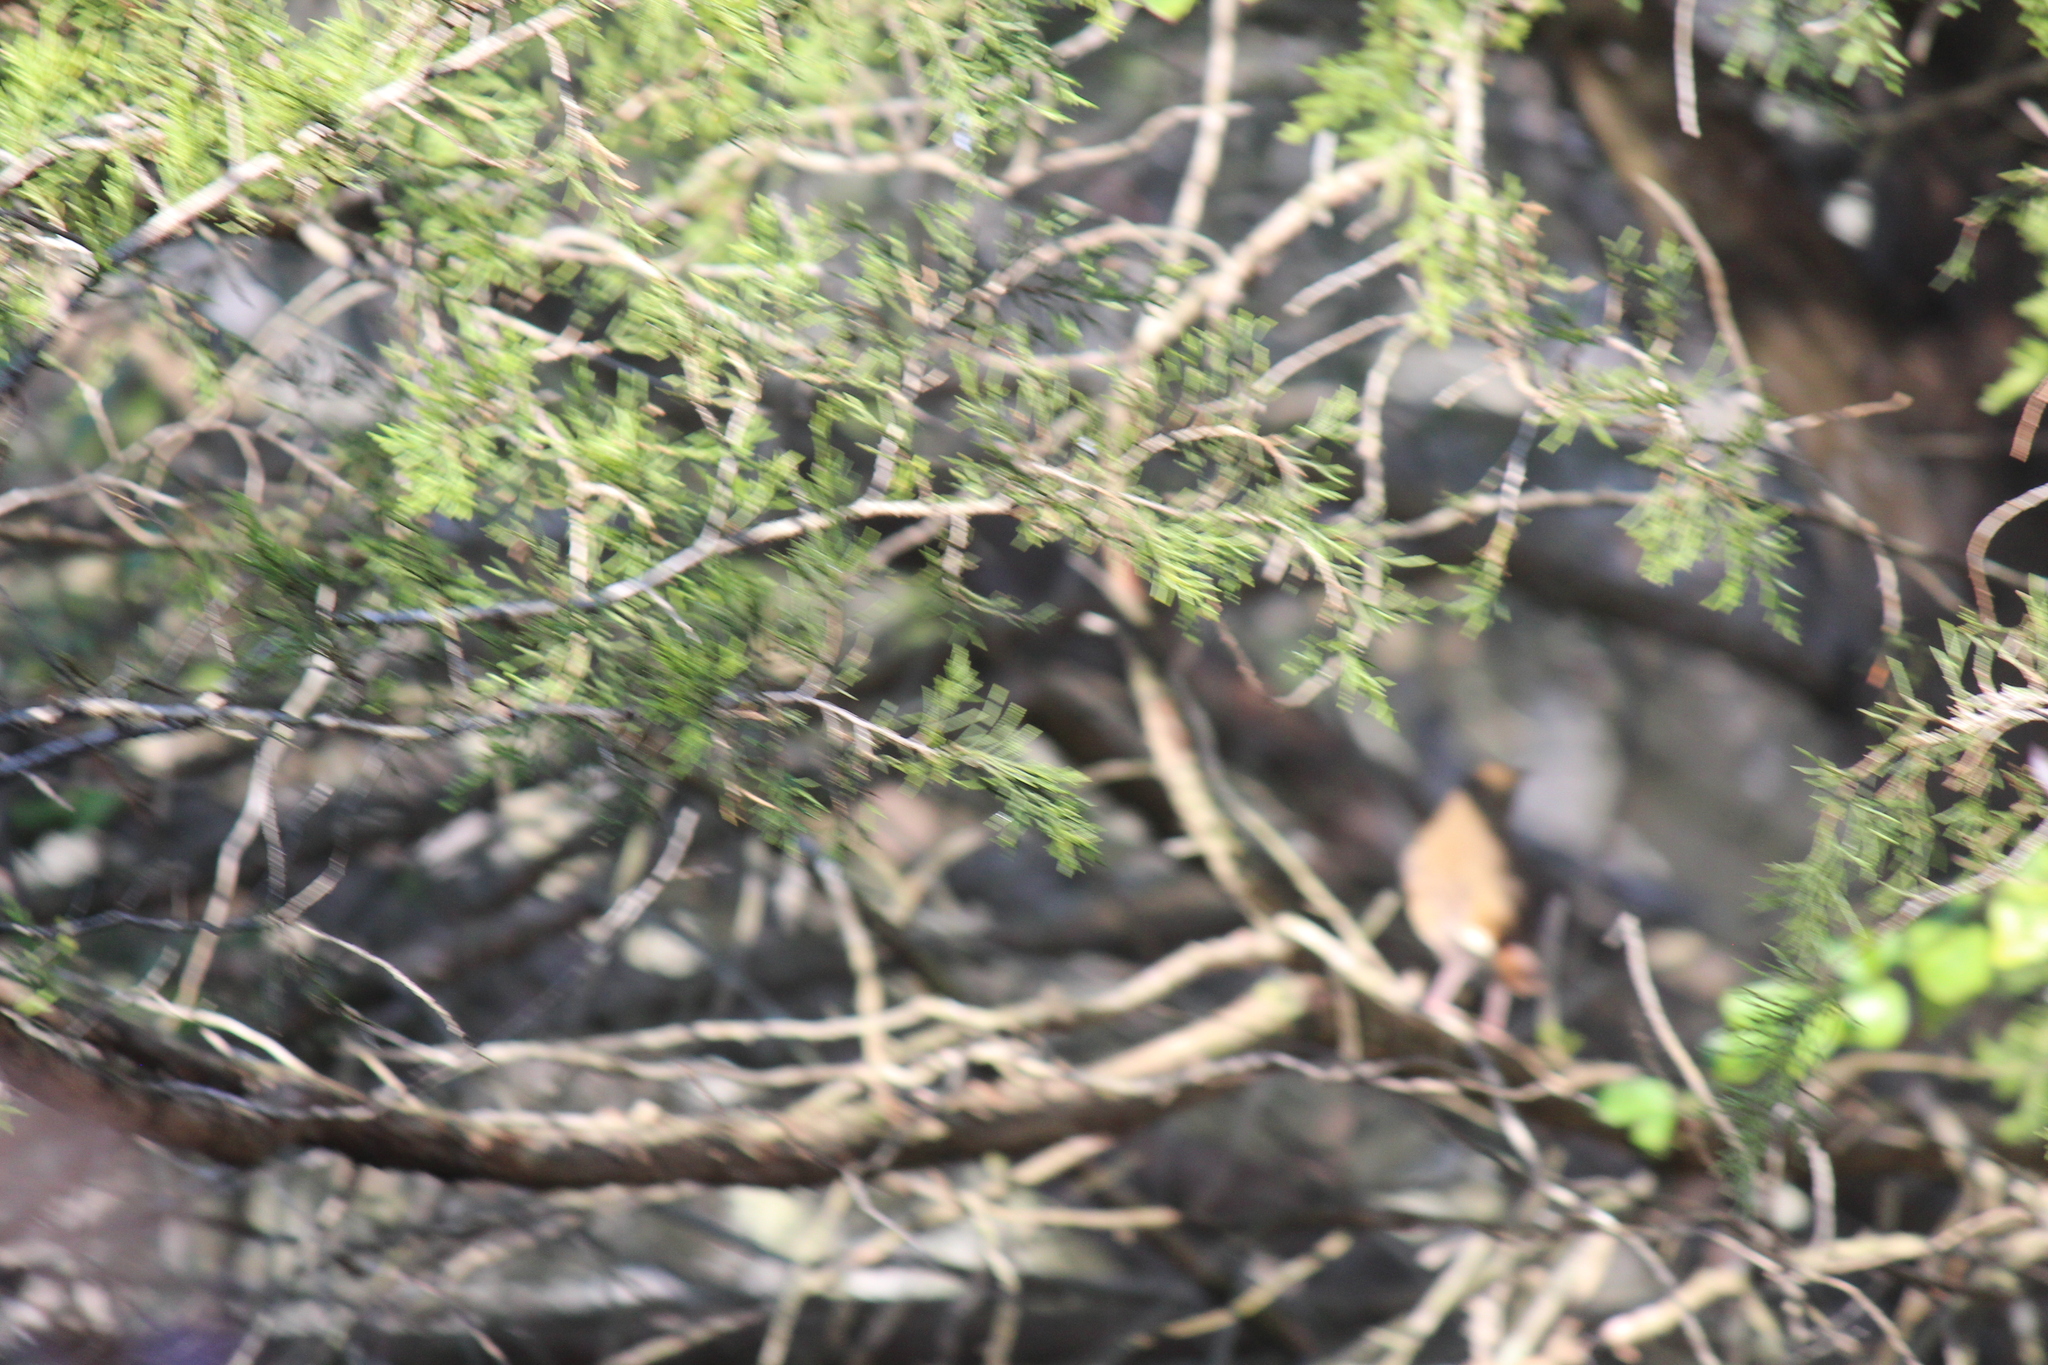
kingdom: Animalia
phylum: Chordata
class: Aves
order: Passeriformes
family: Turdidae
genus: Catharus
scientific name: Catharus guttatus
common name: Hermit thrush
